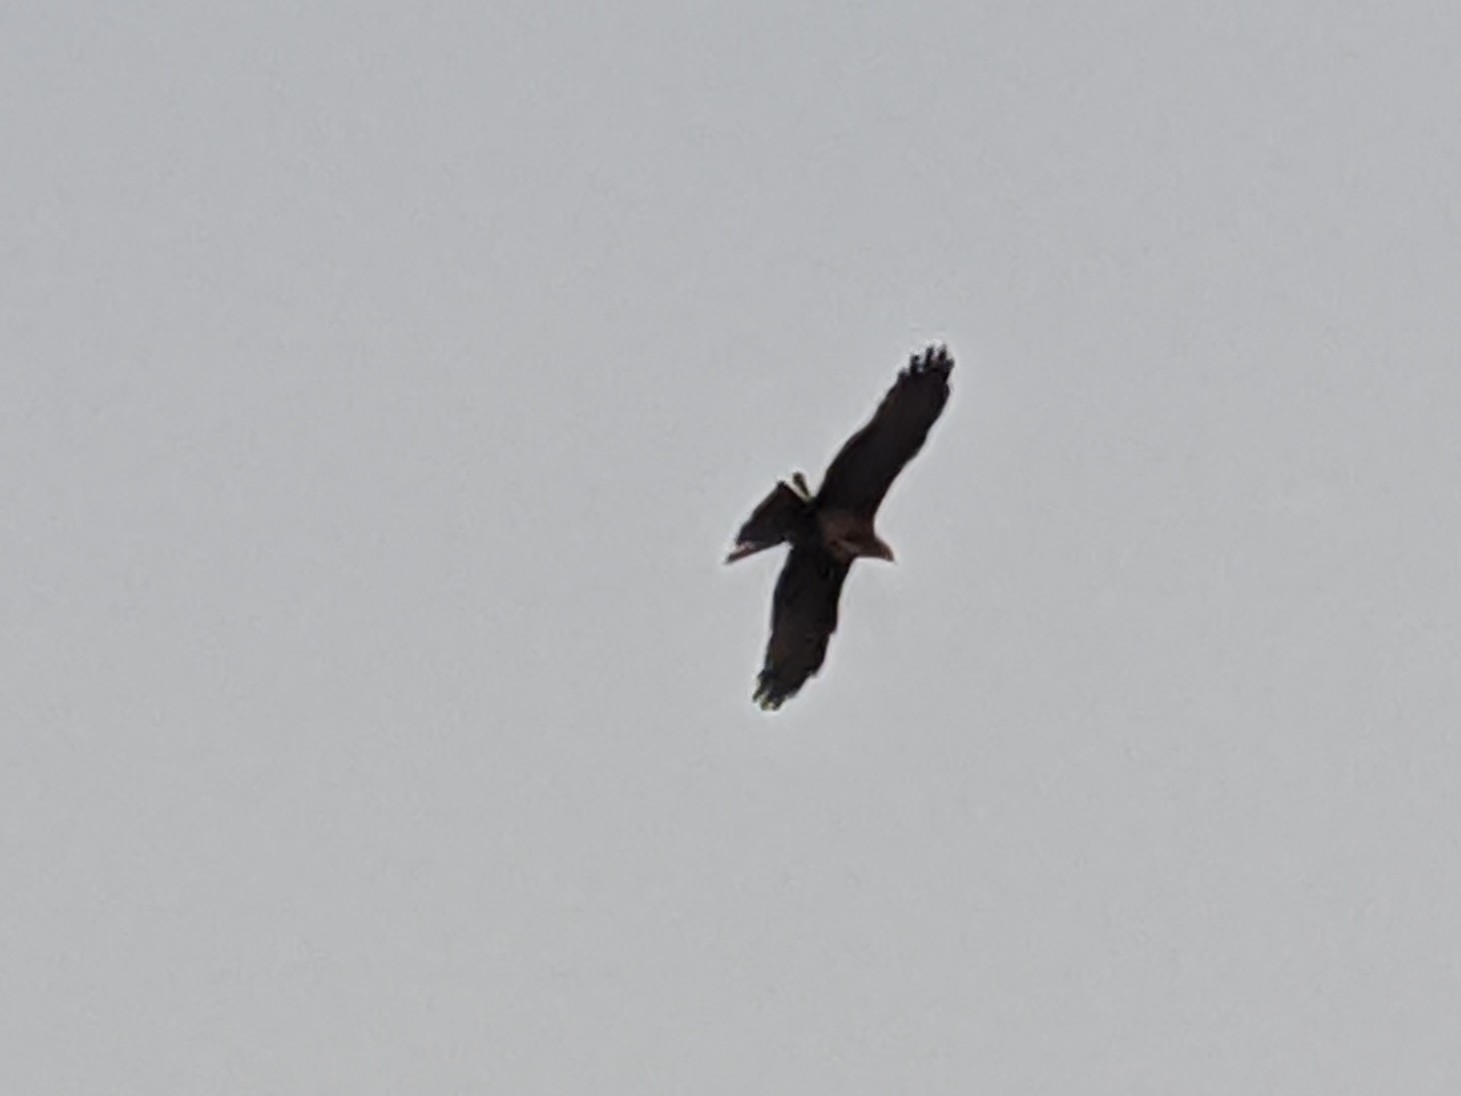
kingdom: Animalia
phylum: Chordata
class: Aves
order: Accipitriformes
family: Accipitridae
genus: Milvus
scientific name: Milvus migrans
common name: Black kite
